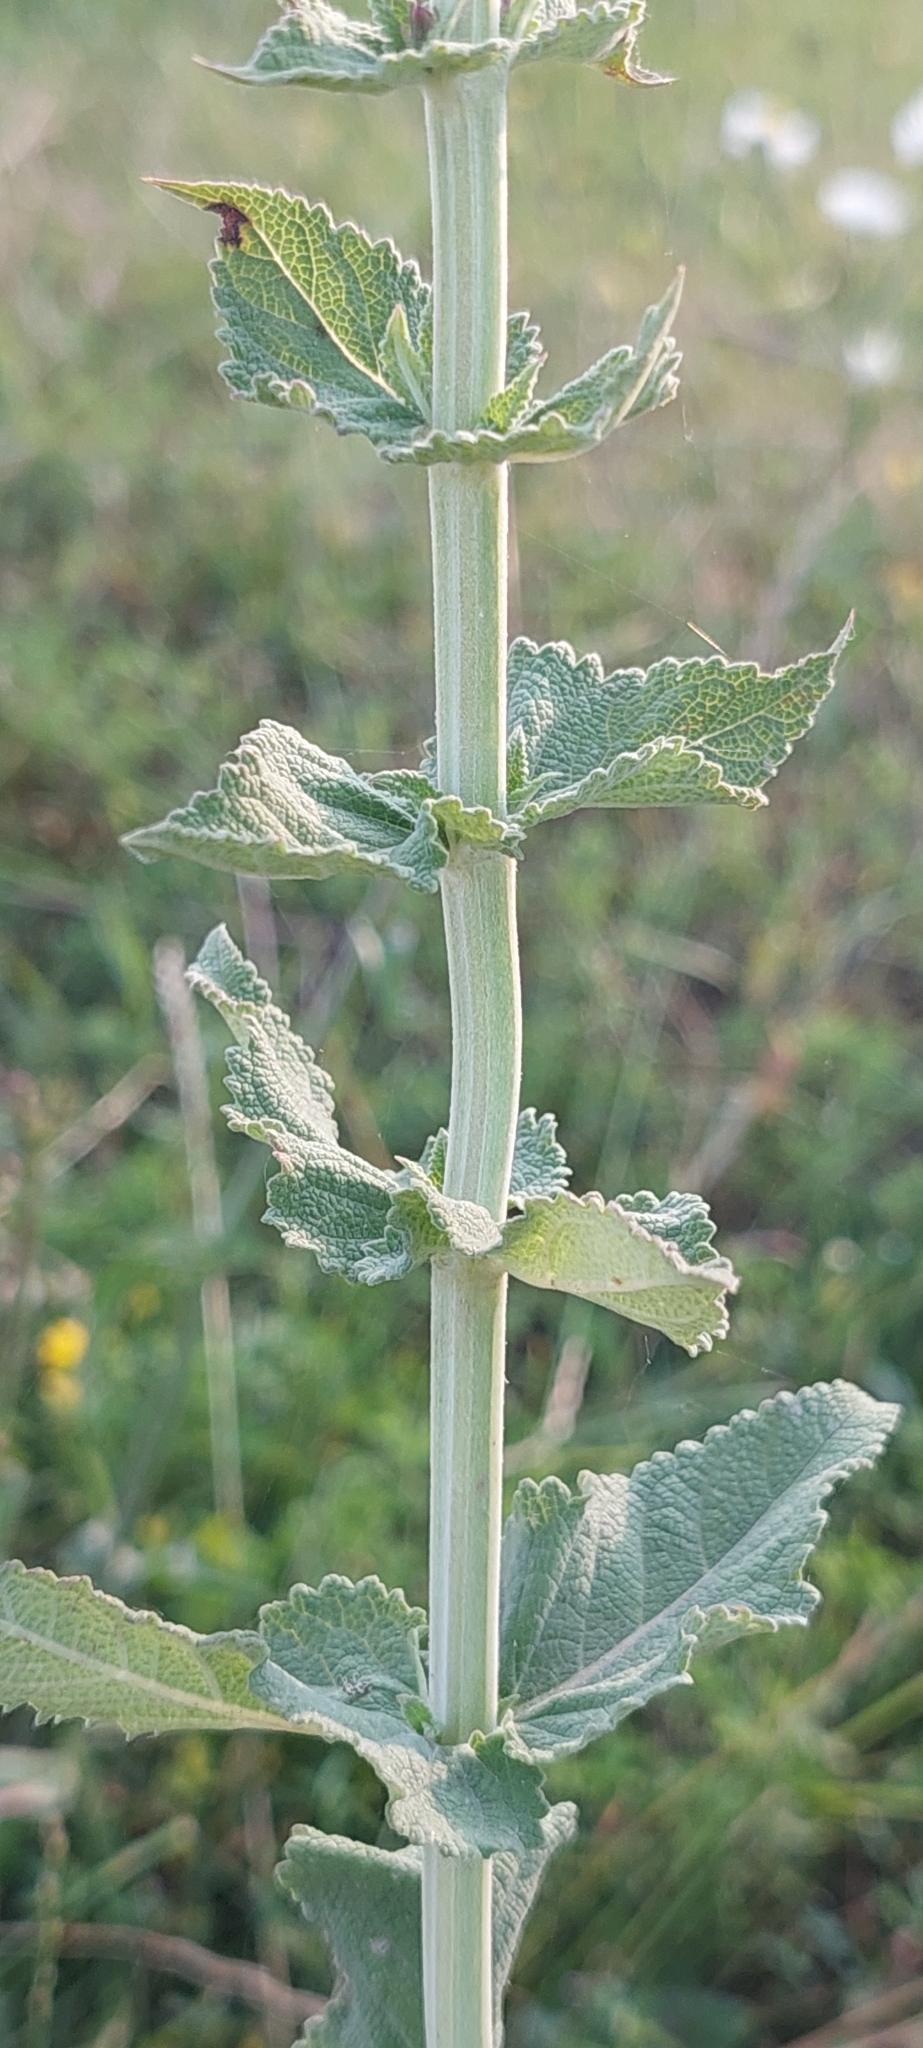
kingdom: Plantae
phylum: Tracheophyta
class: Magnoliopsida
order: Lamiales
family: Lamiaceae
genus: Salvia
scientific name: Salvia nemorosa
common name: Balkan clary
